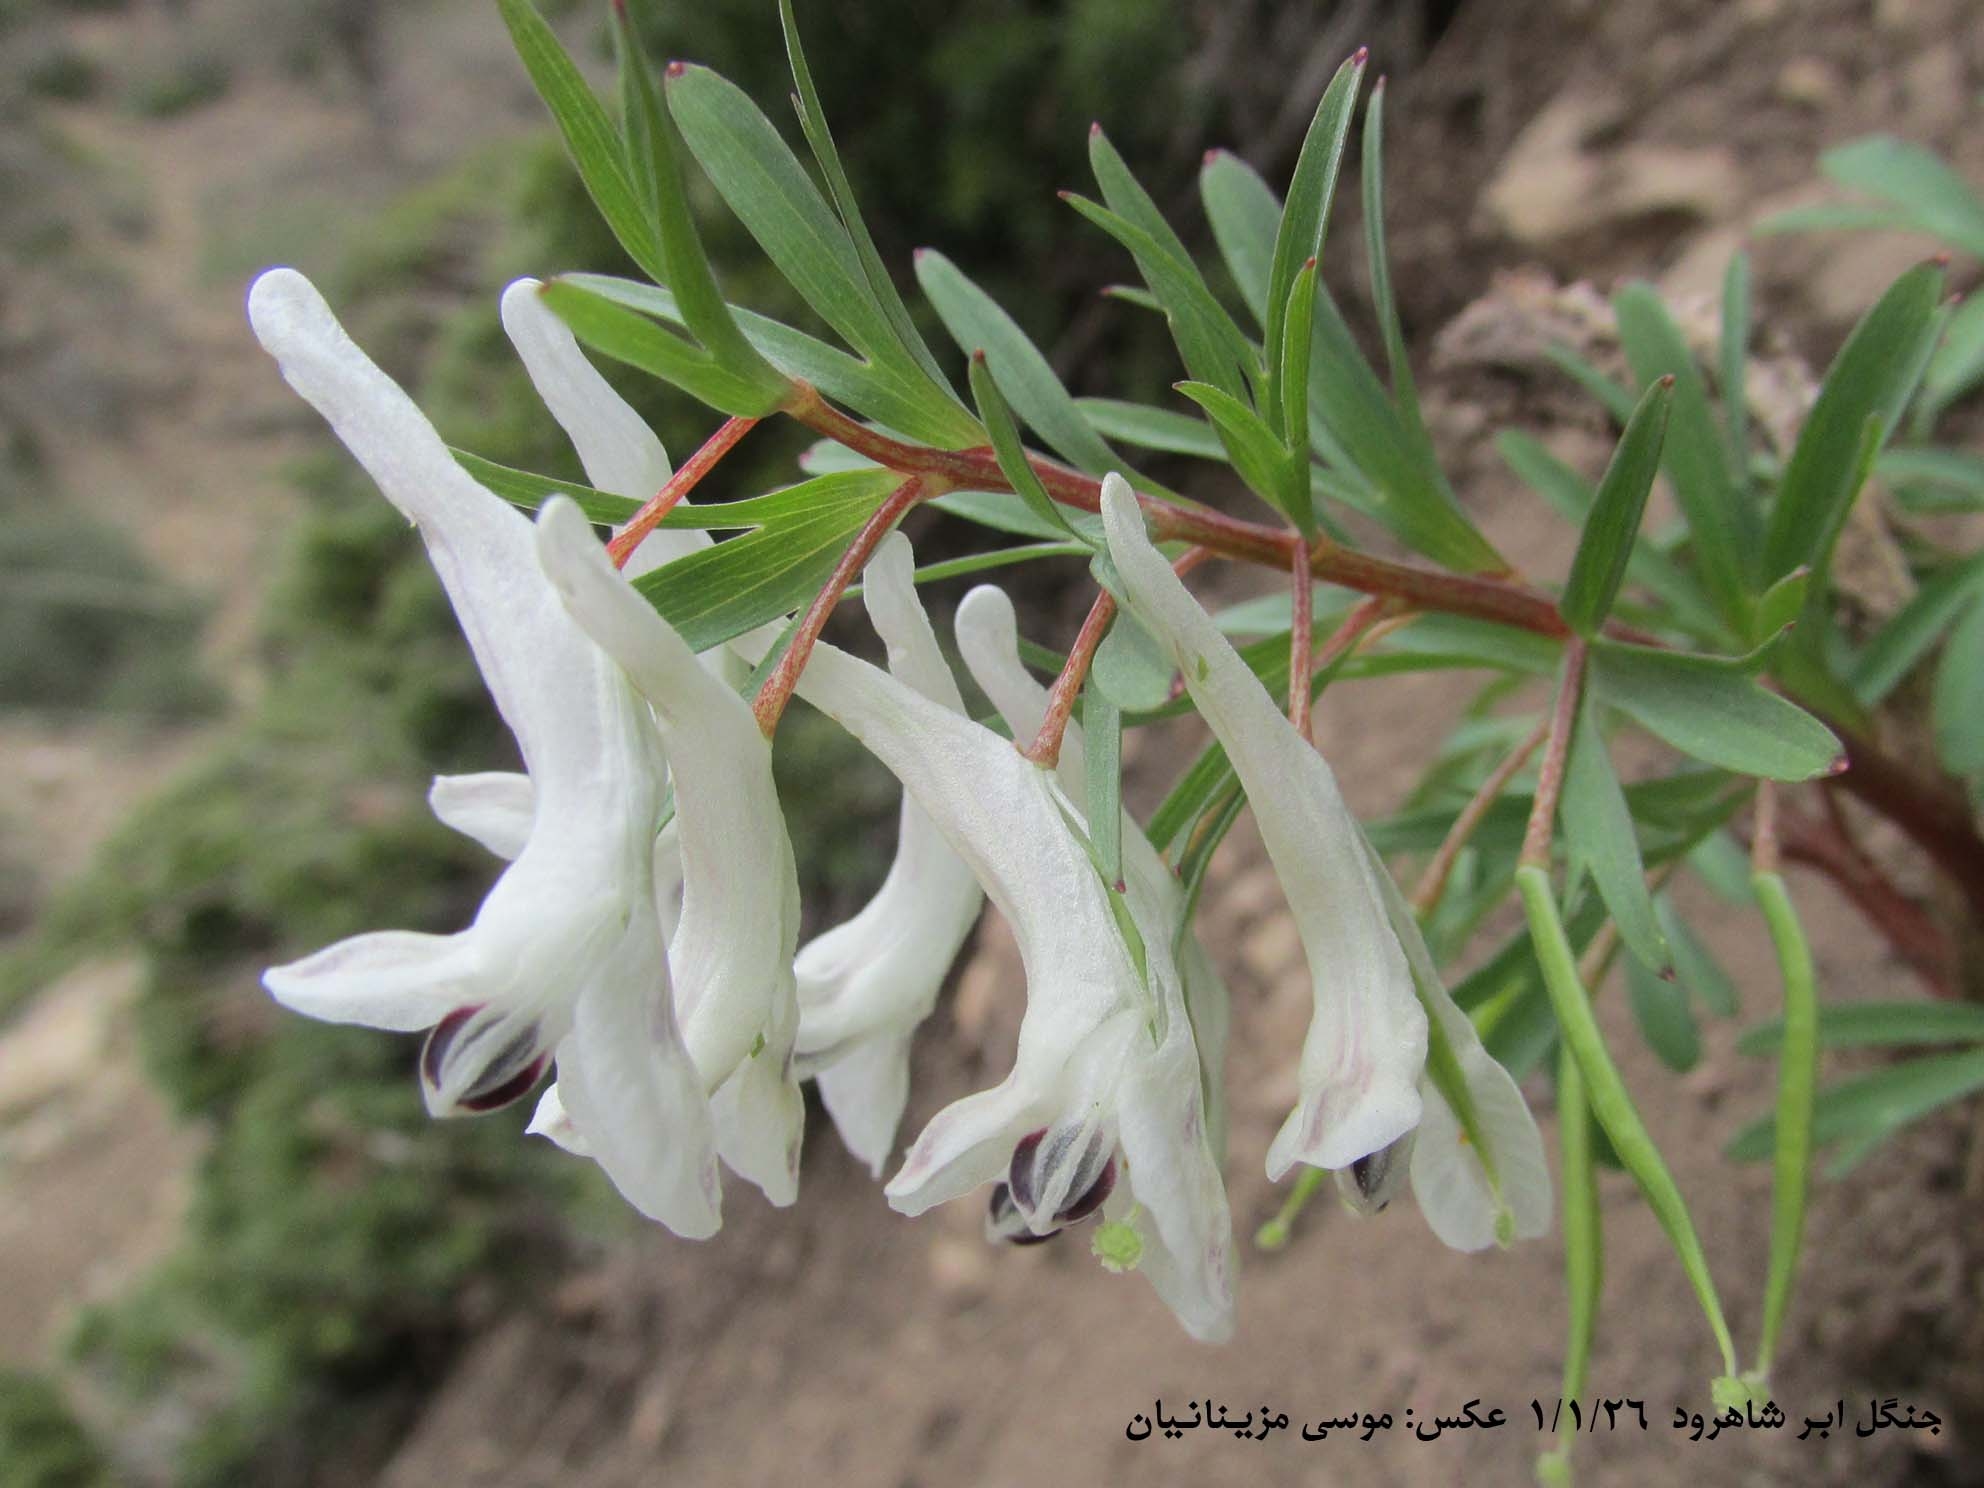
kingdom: Plantae
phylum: Tracheophyta
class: Magnoliopsida
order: Ranunculales
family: Papaveraceae
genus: Corydalis
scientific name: Corydalis angustifolia
